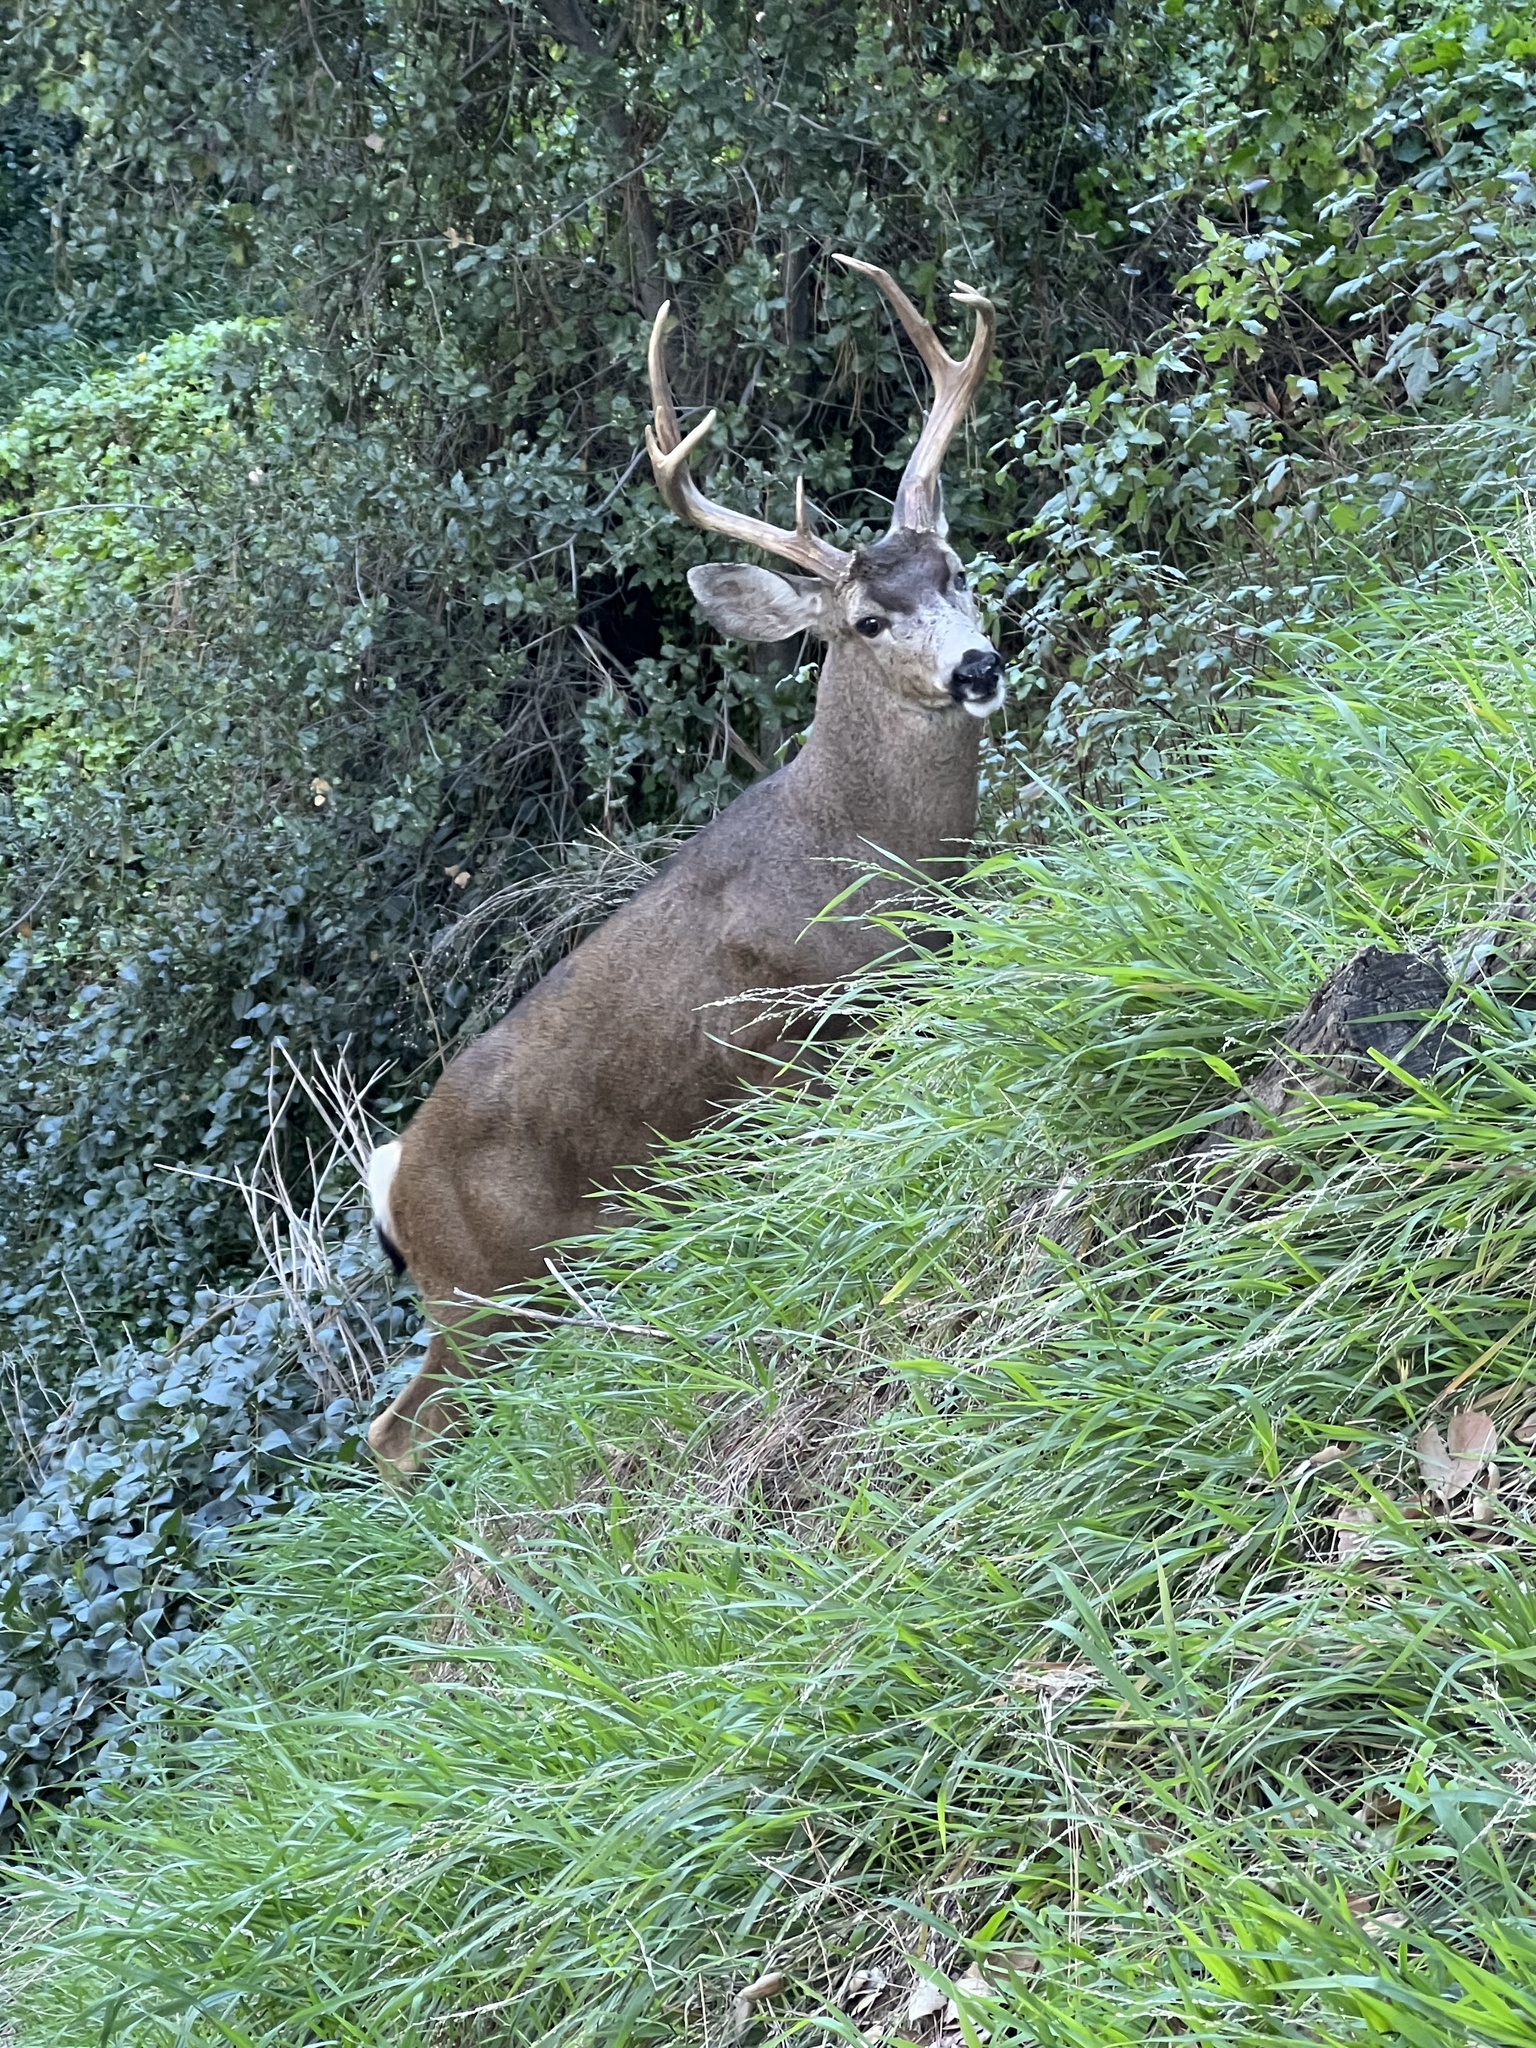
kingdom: Animalia
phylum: Chordata
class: Mammalia
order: Artiodactyla
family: Cervidae
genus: Odocoileus
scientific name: Odocoileus hemionus
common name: Mule deer
